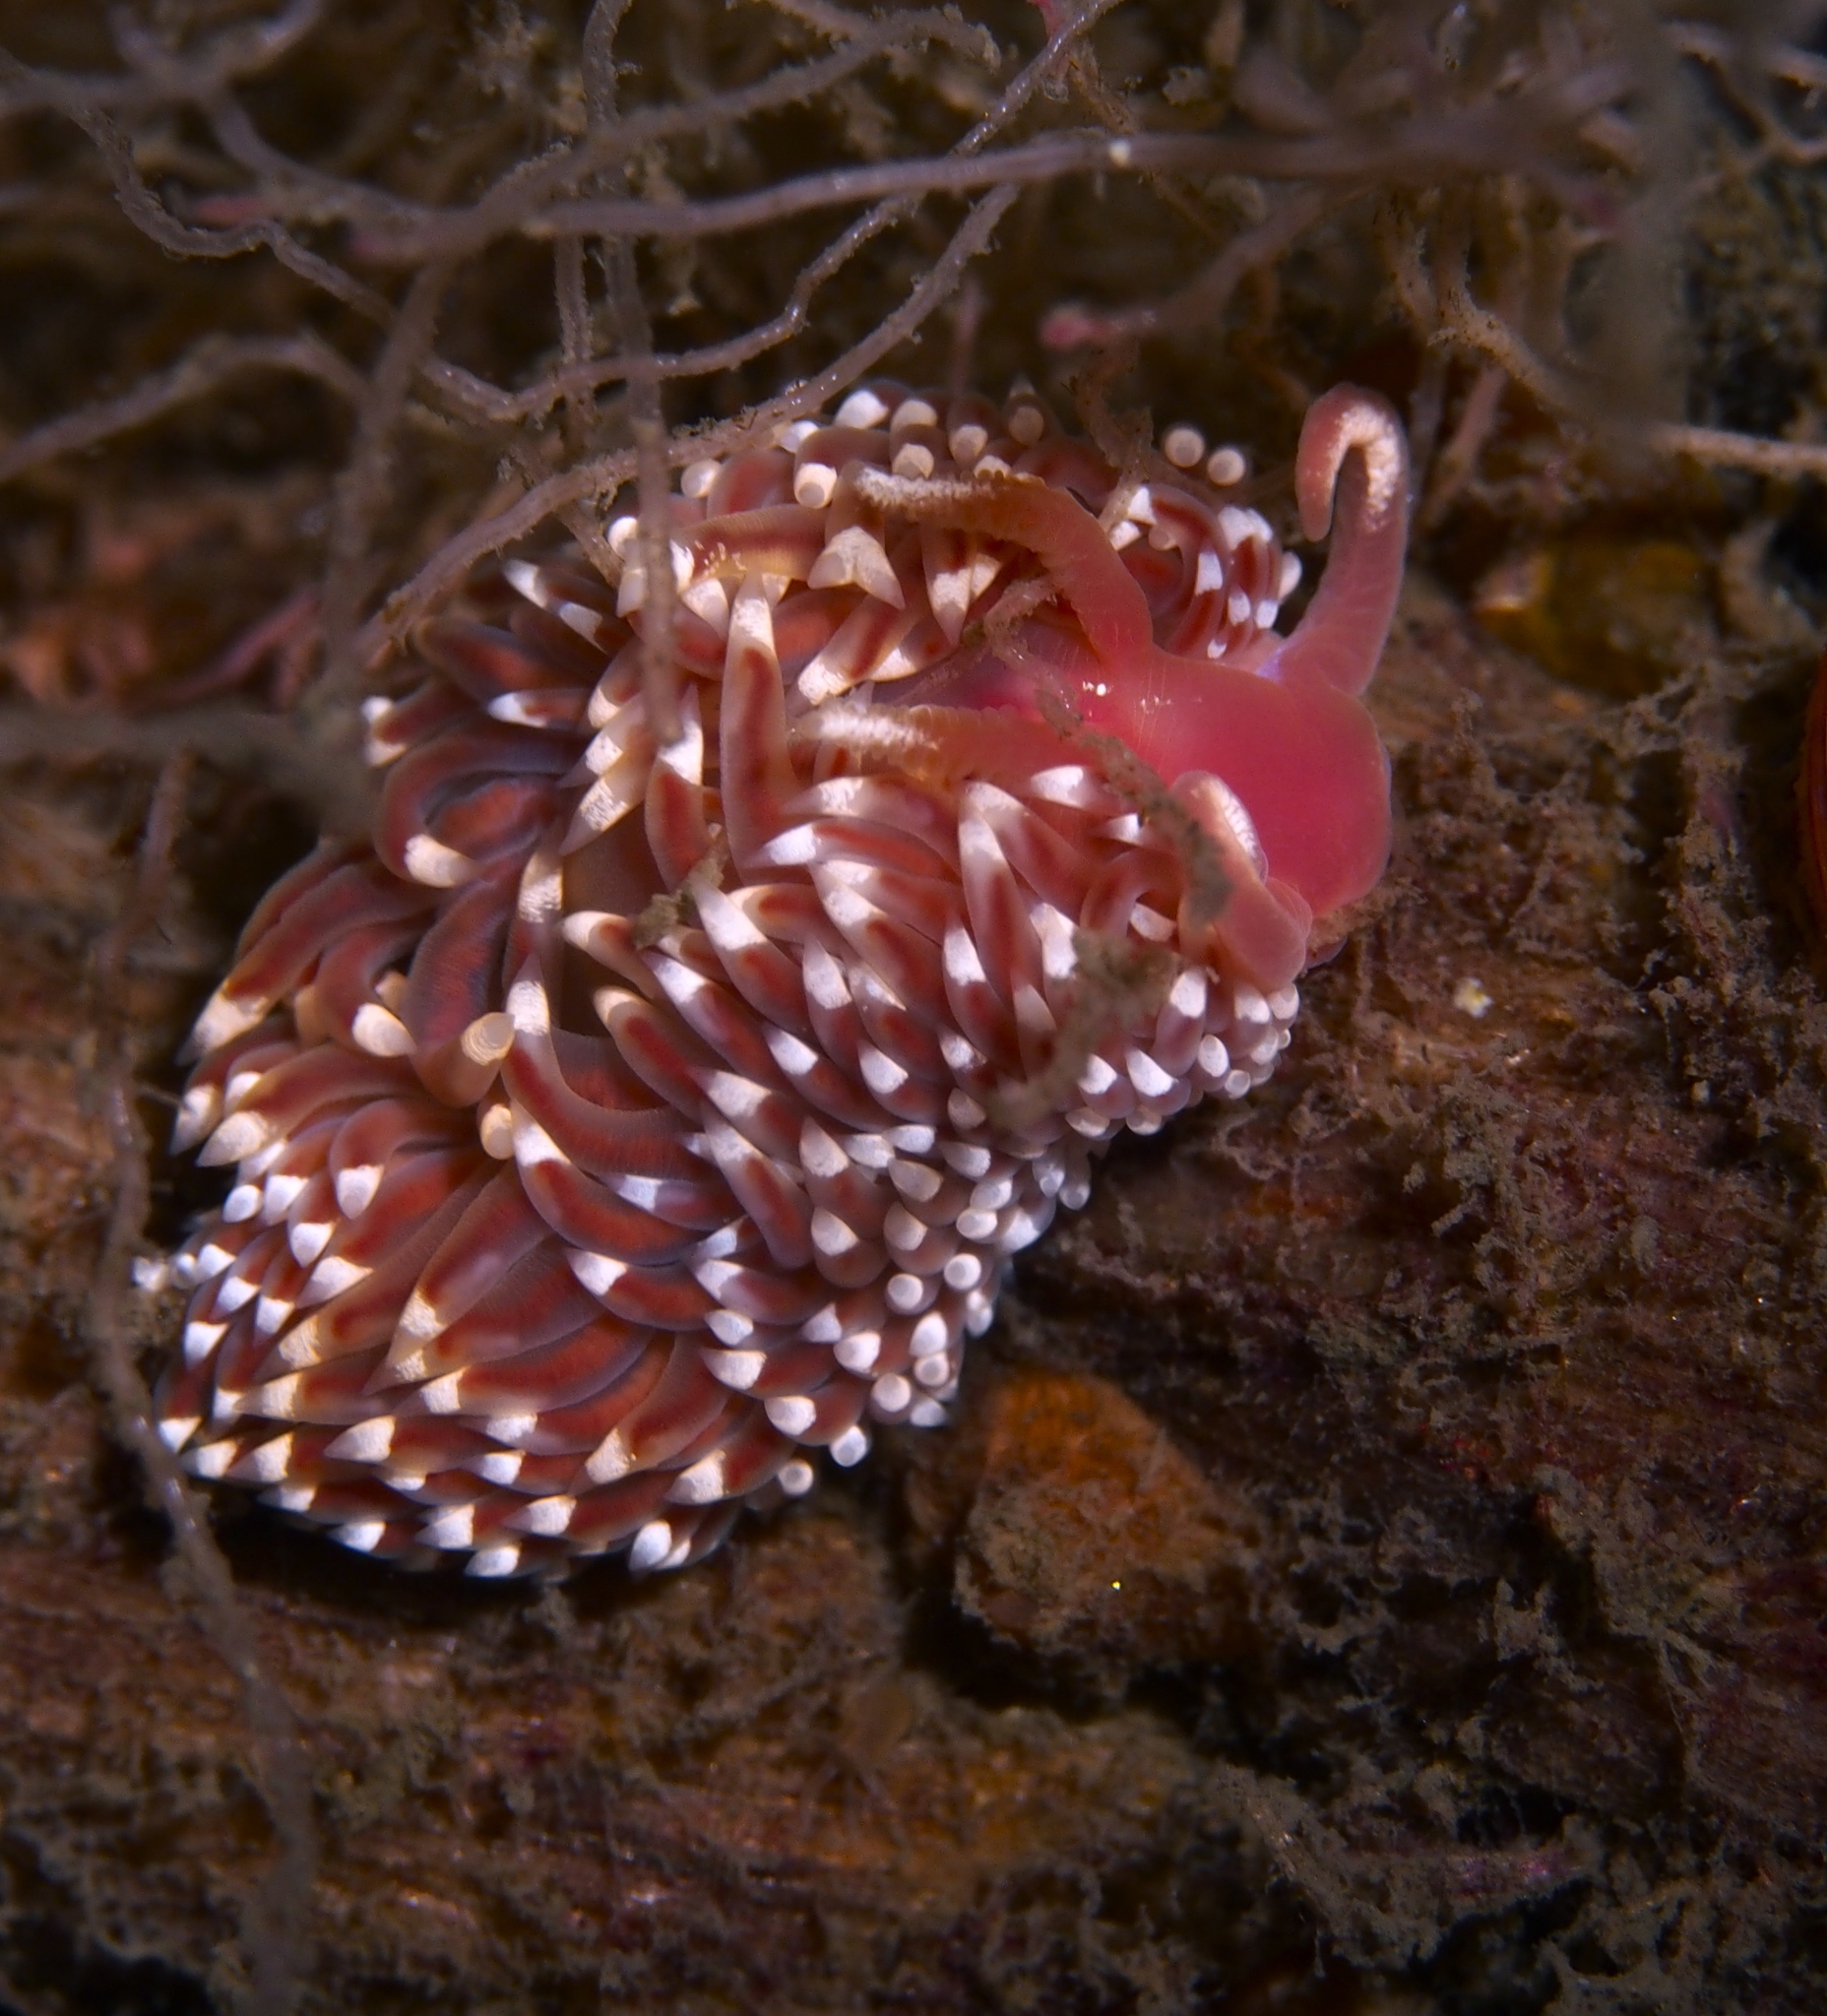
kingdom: Animalia
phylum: Mollusca
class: Gastropoda
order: Nudibranchia
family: Facelinidae
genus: Facelina
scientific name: Facelina bostoniensis
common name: Boston facelina
